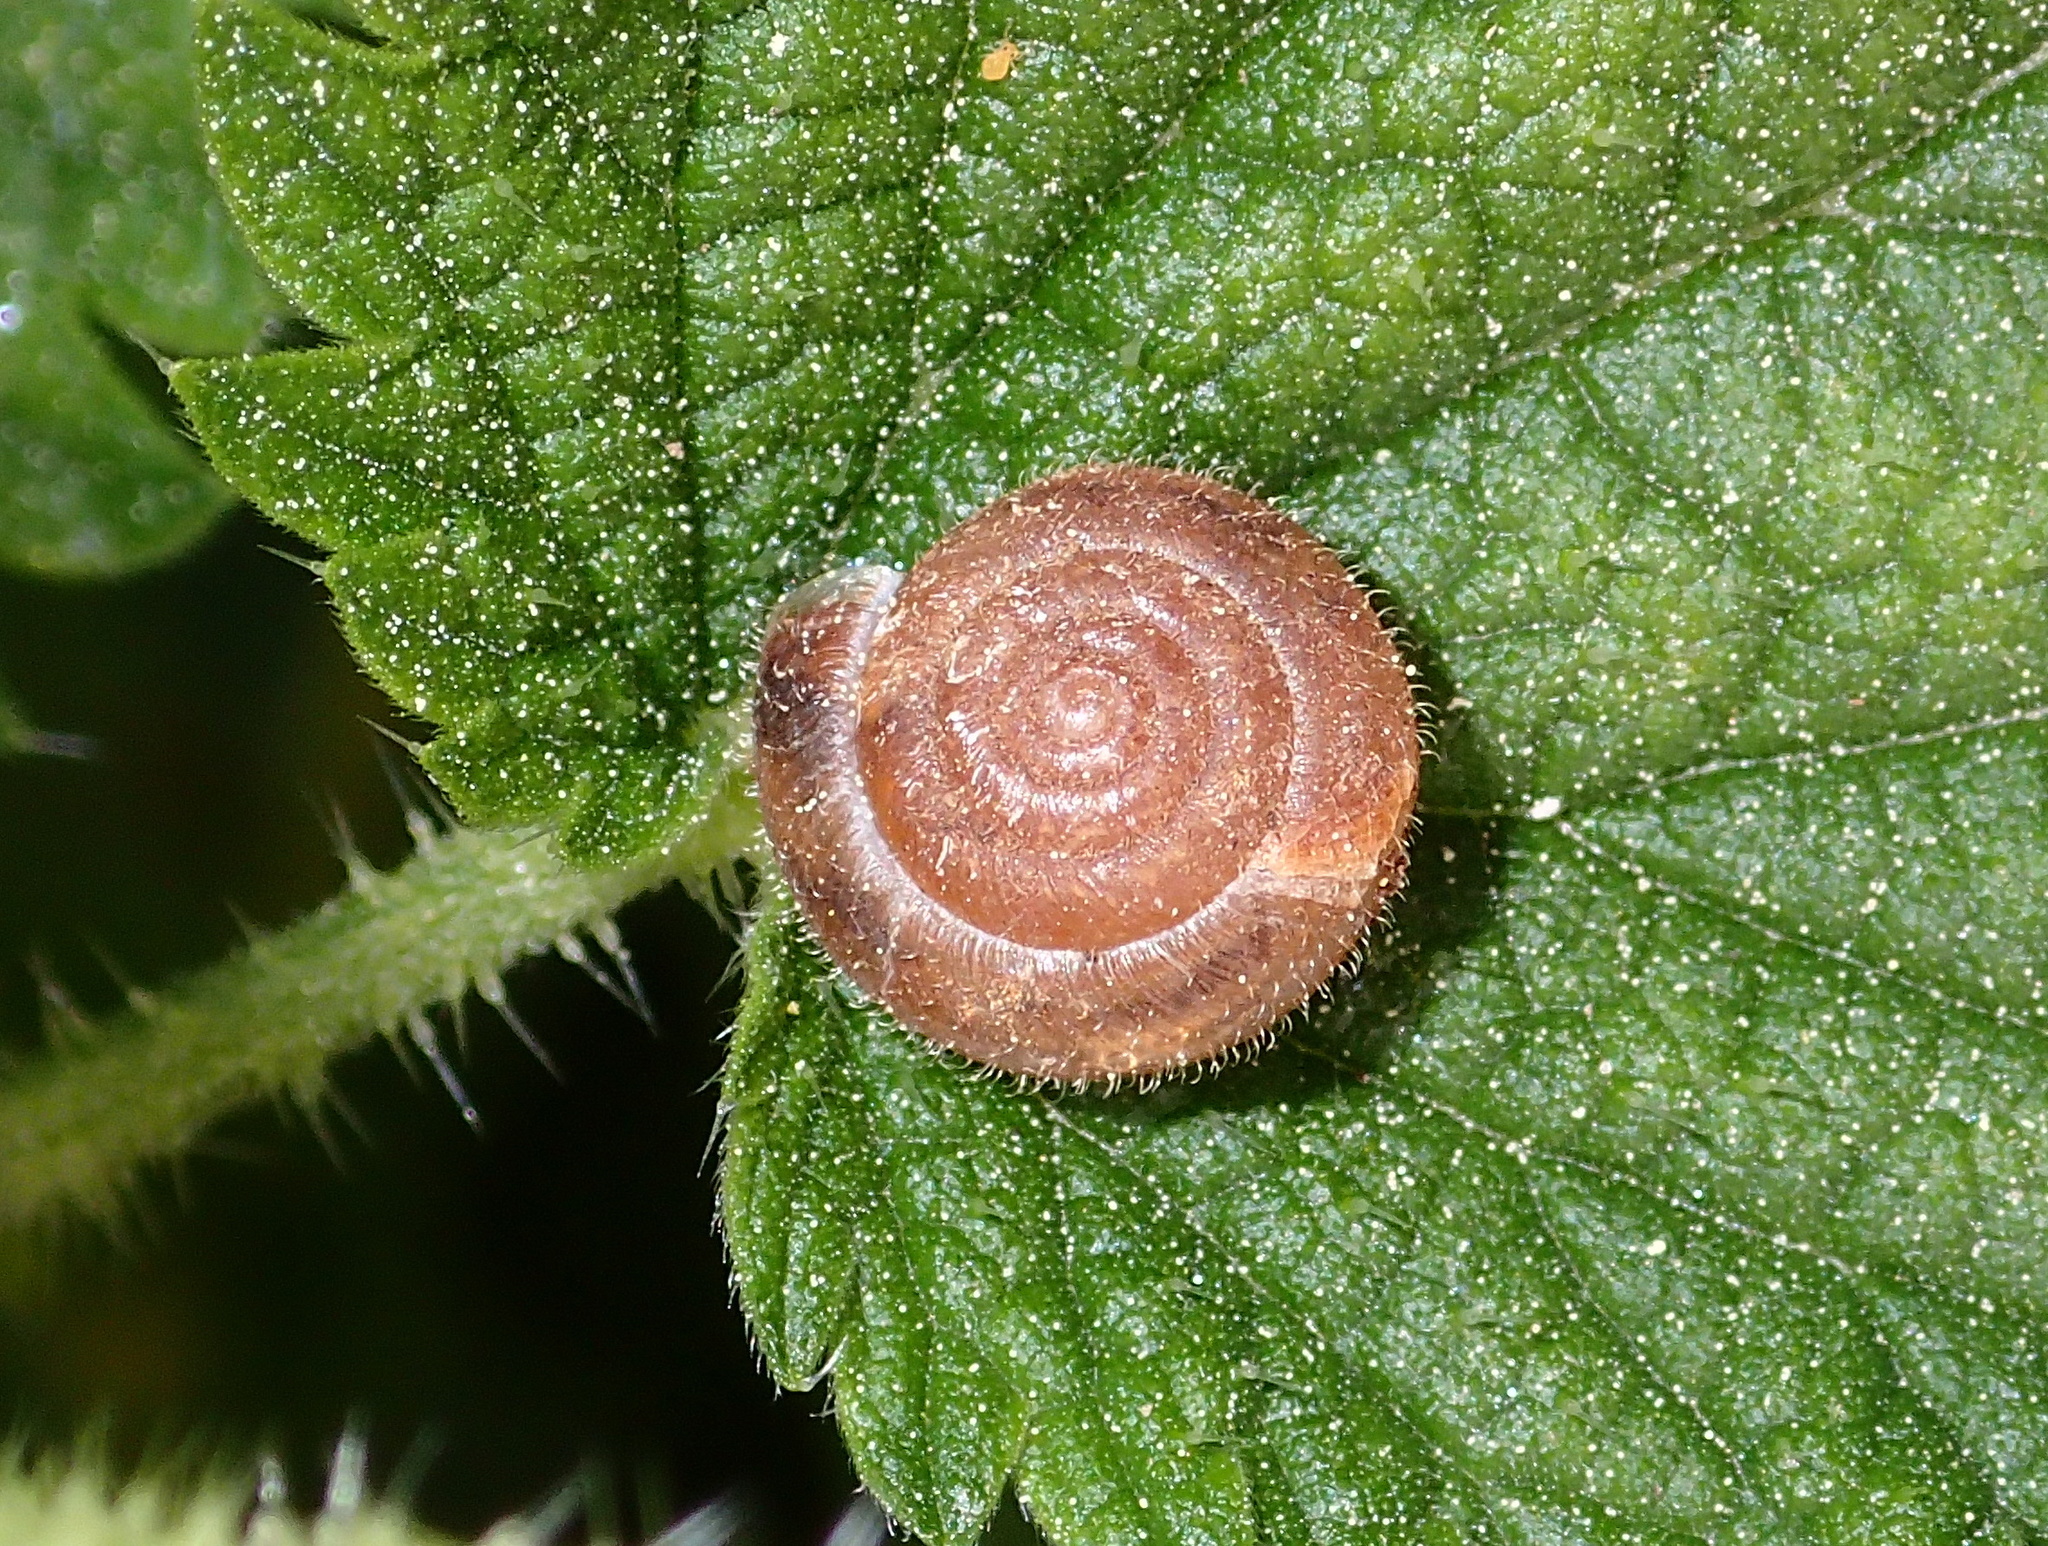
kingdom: Animalia
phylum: Mollusca
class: Gastropoda
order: Stylommatophora
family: Hygromiidae
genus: Trochulus
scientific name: Trochulus hispidus
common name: Hairy snail
